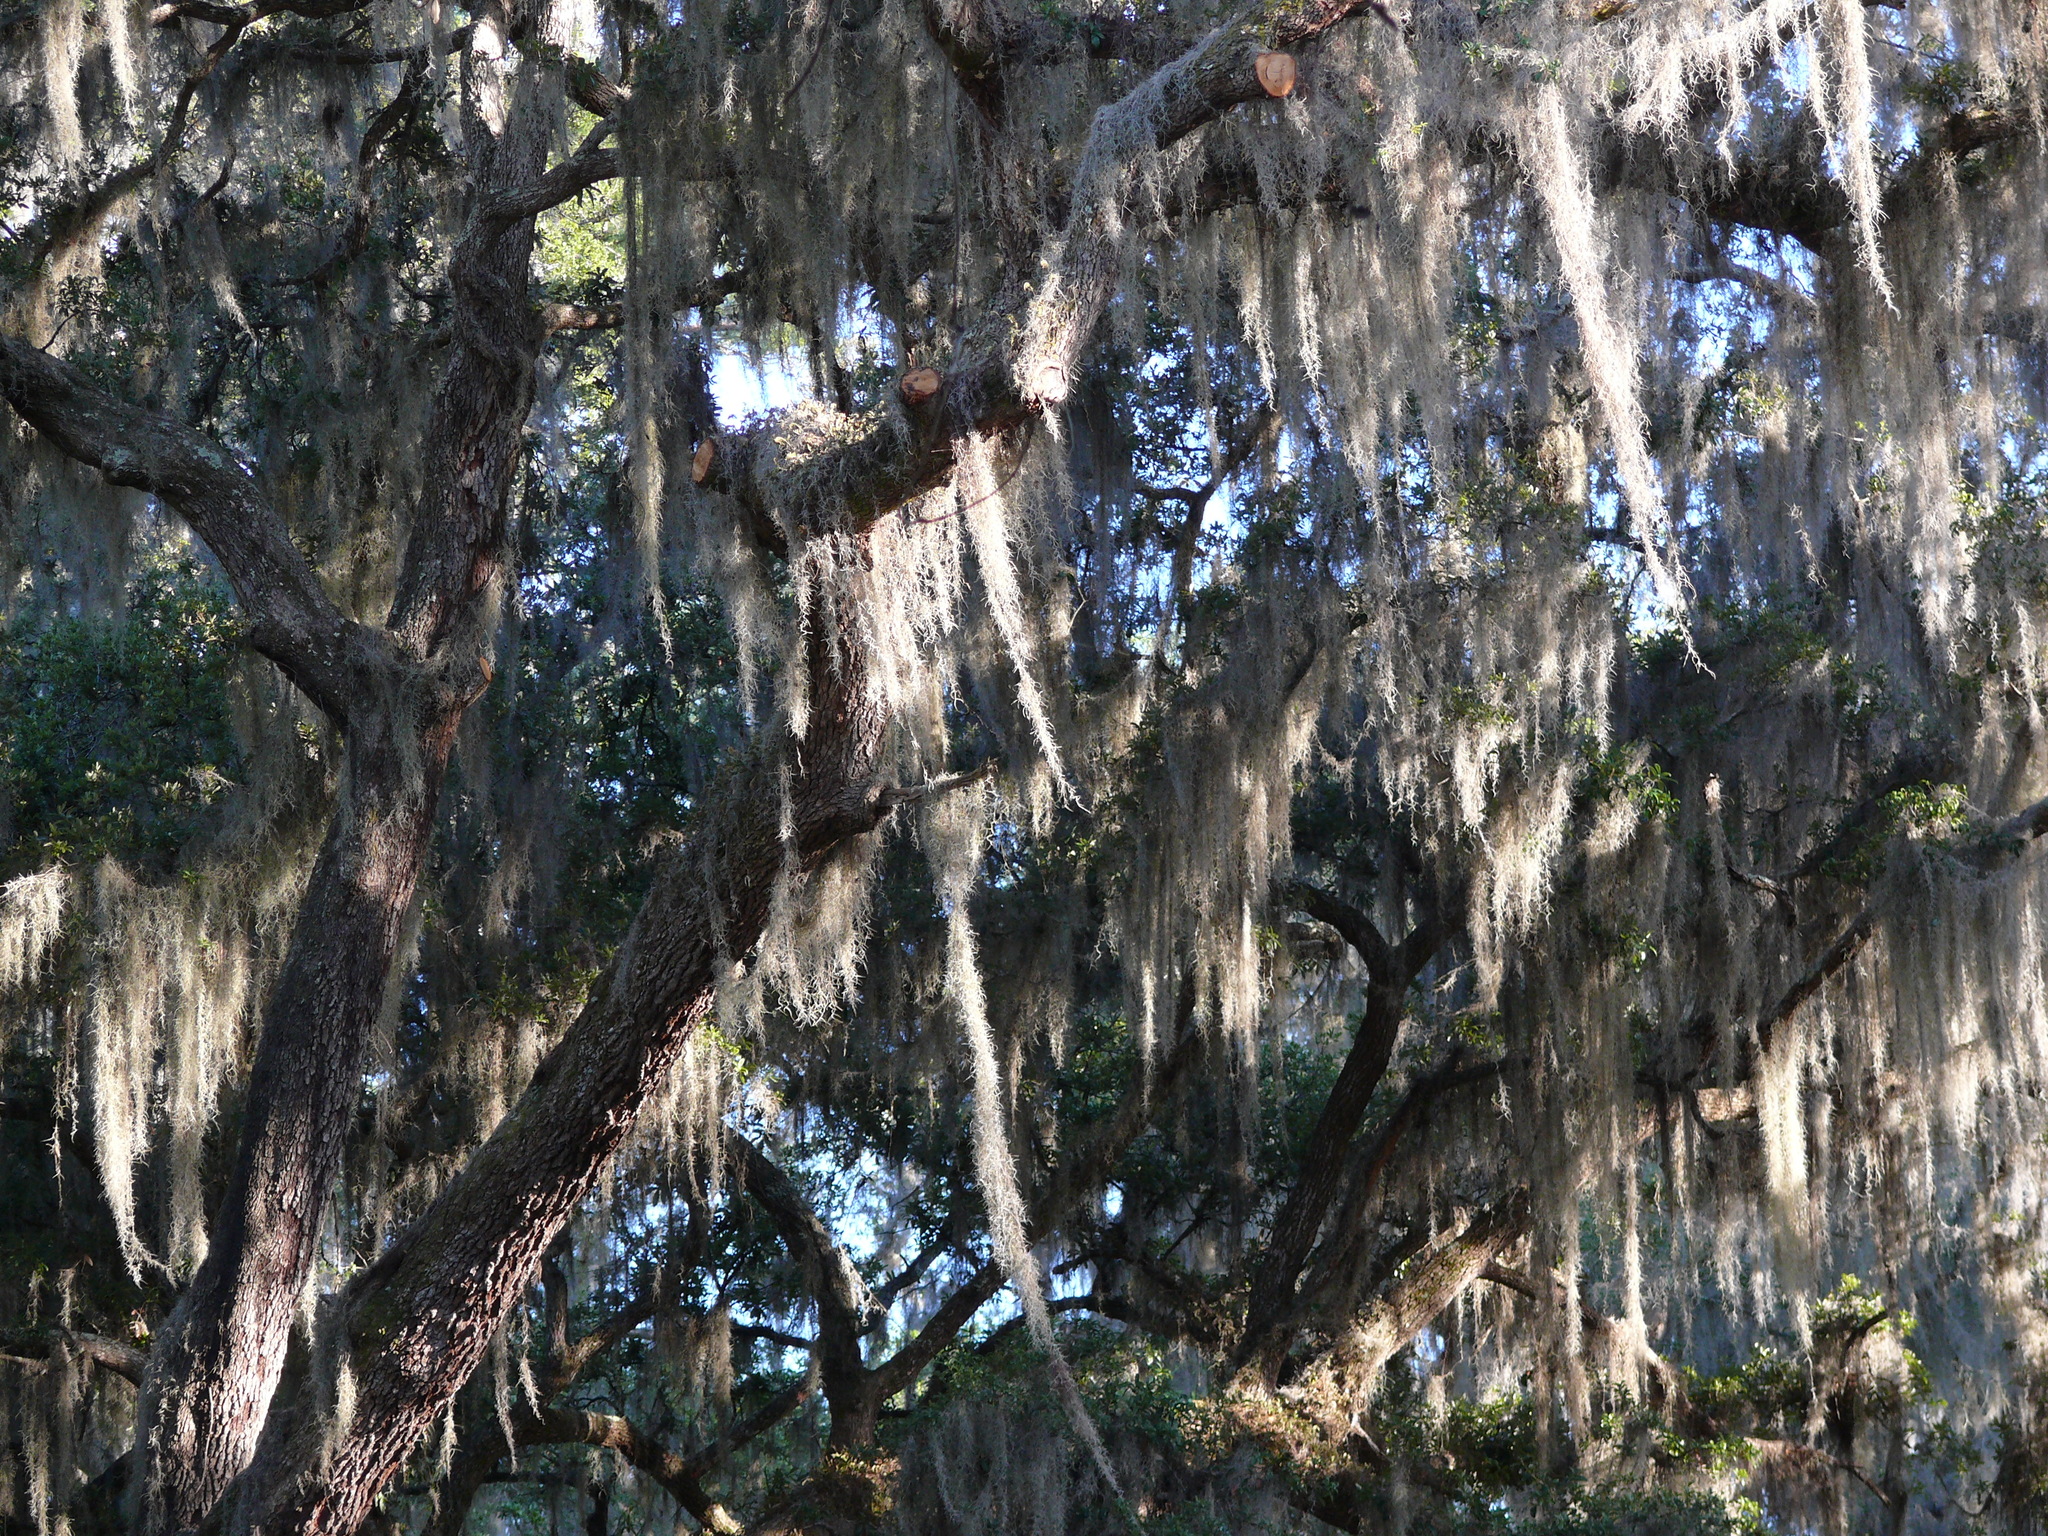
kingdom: Plantae
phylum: Tracheophyta
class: Liliopsida
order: Poales
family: Bromeliaceae
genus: Tillandsia
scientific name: Tillandsia usneoides
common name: Spanish moss
